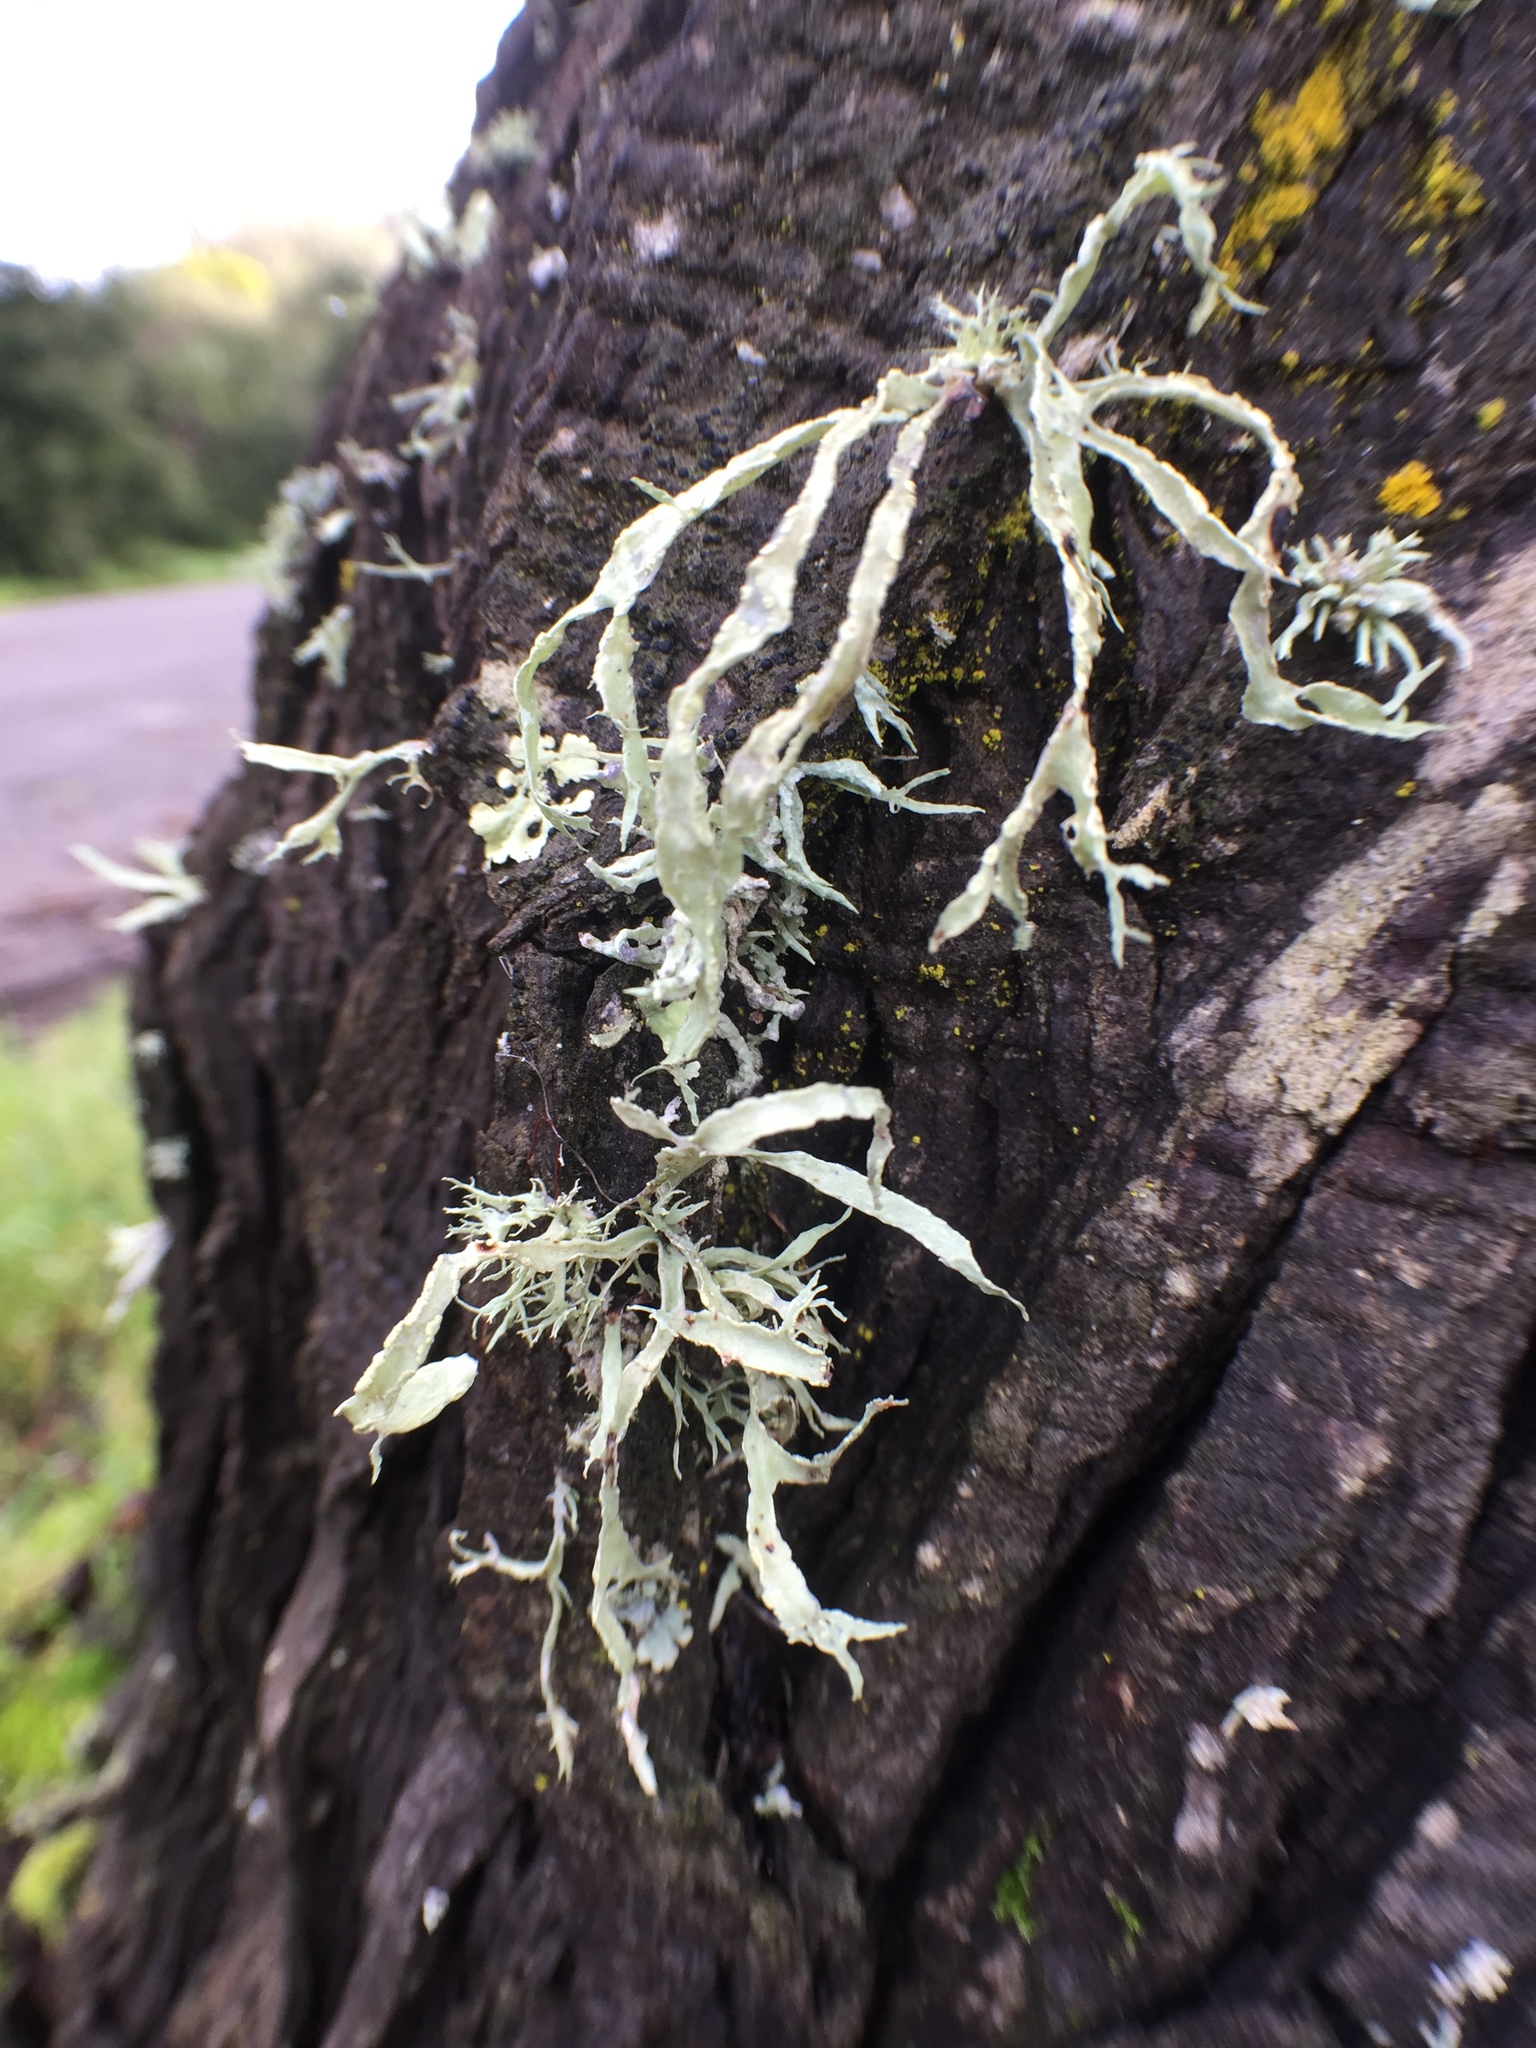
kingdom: Fungi
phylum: Ascomycota
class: Lecanoromycetes
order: Lecanorales
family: Ramalinaceae
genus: Ramalina
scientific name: Ramalina subleptocarpha
